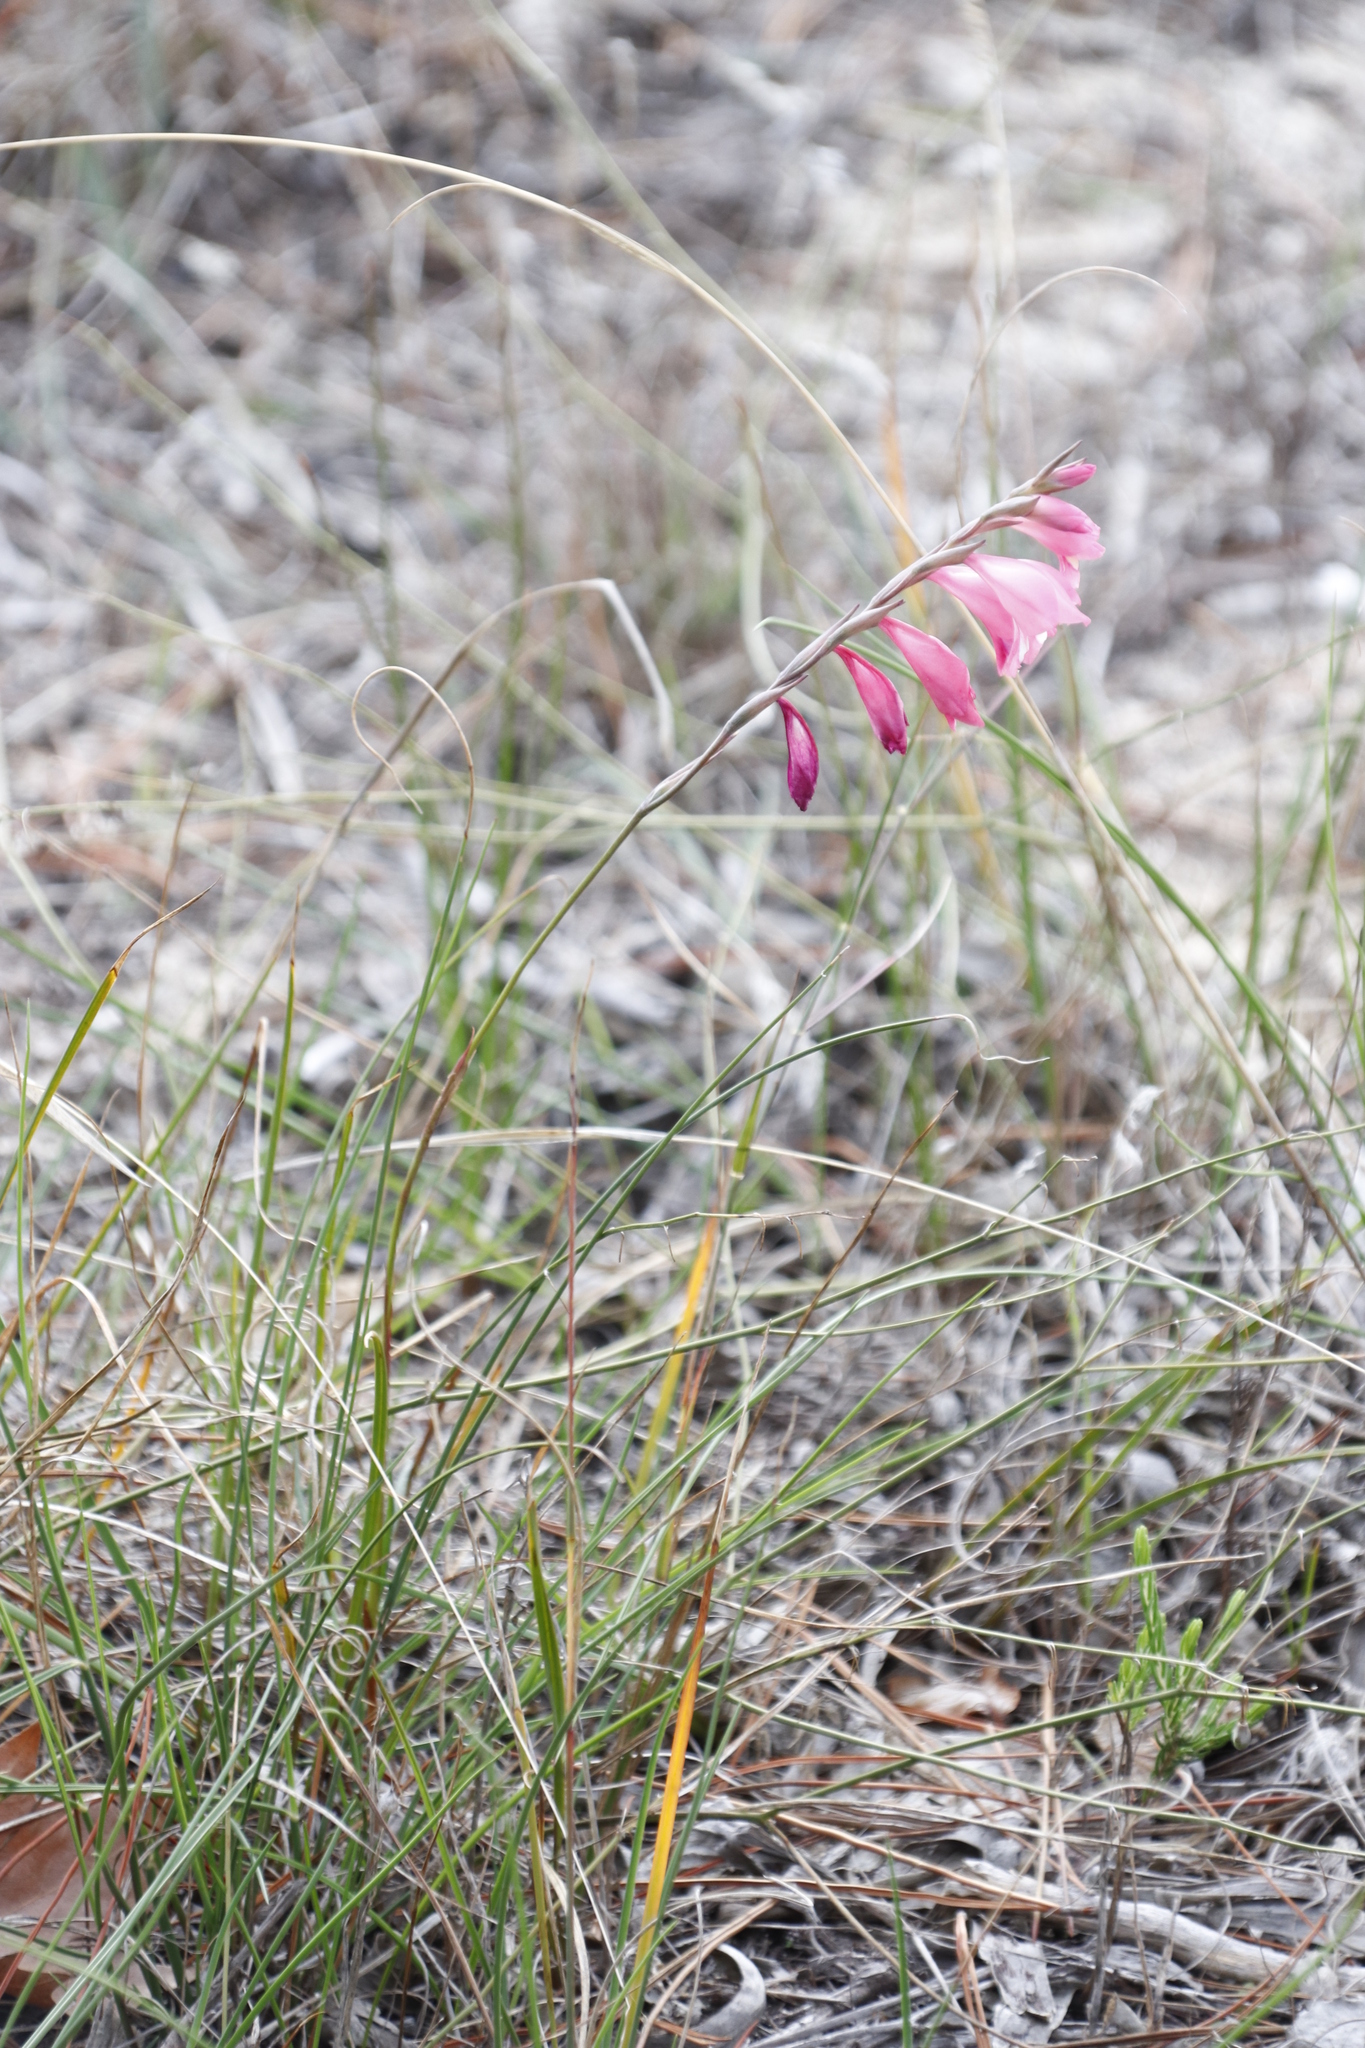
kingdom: Plantae
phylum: Tracheophyta
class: Liliopsida
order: Asparagales
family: Iridaceae
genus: Gladiolus
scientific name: Gladiolus brevifolius
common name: March pypie
